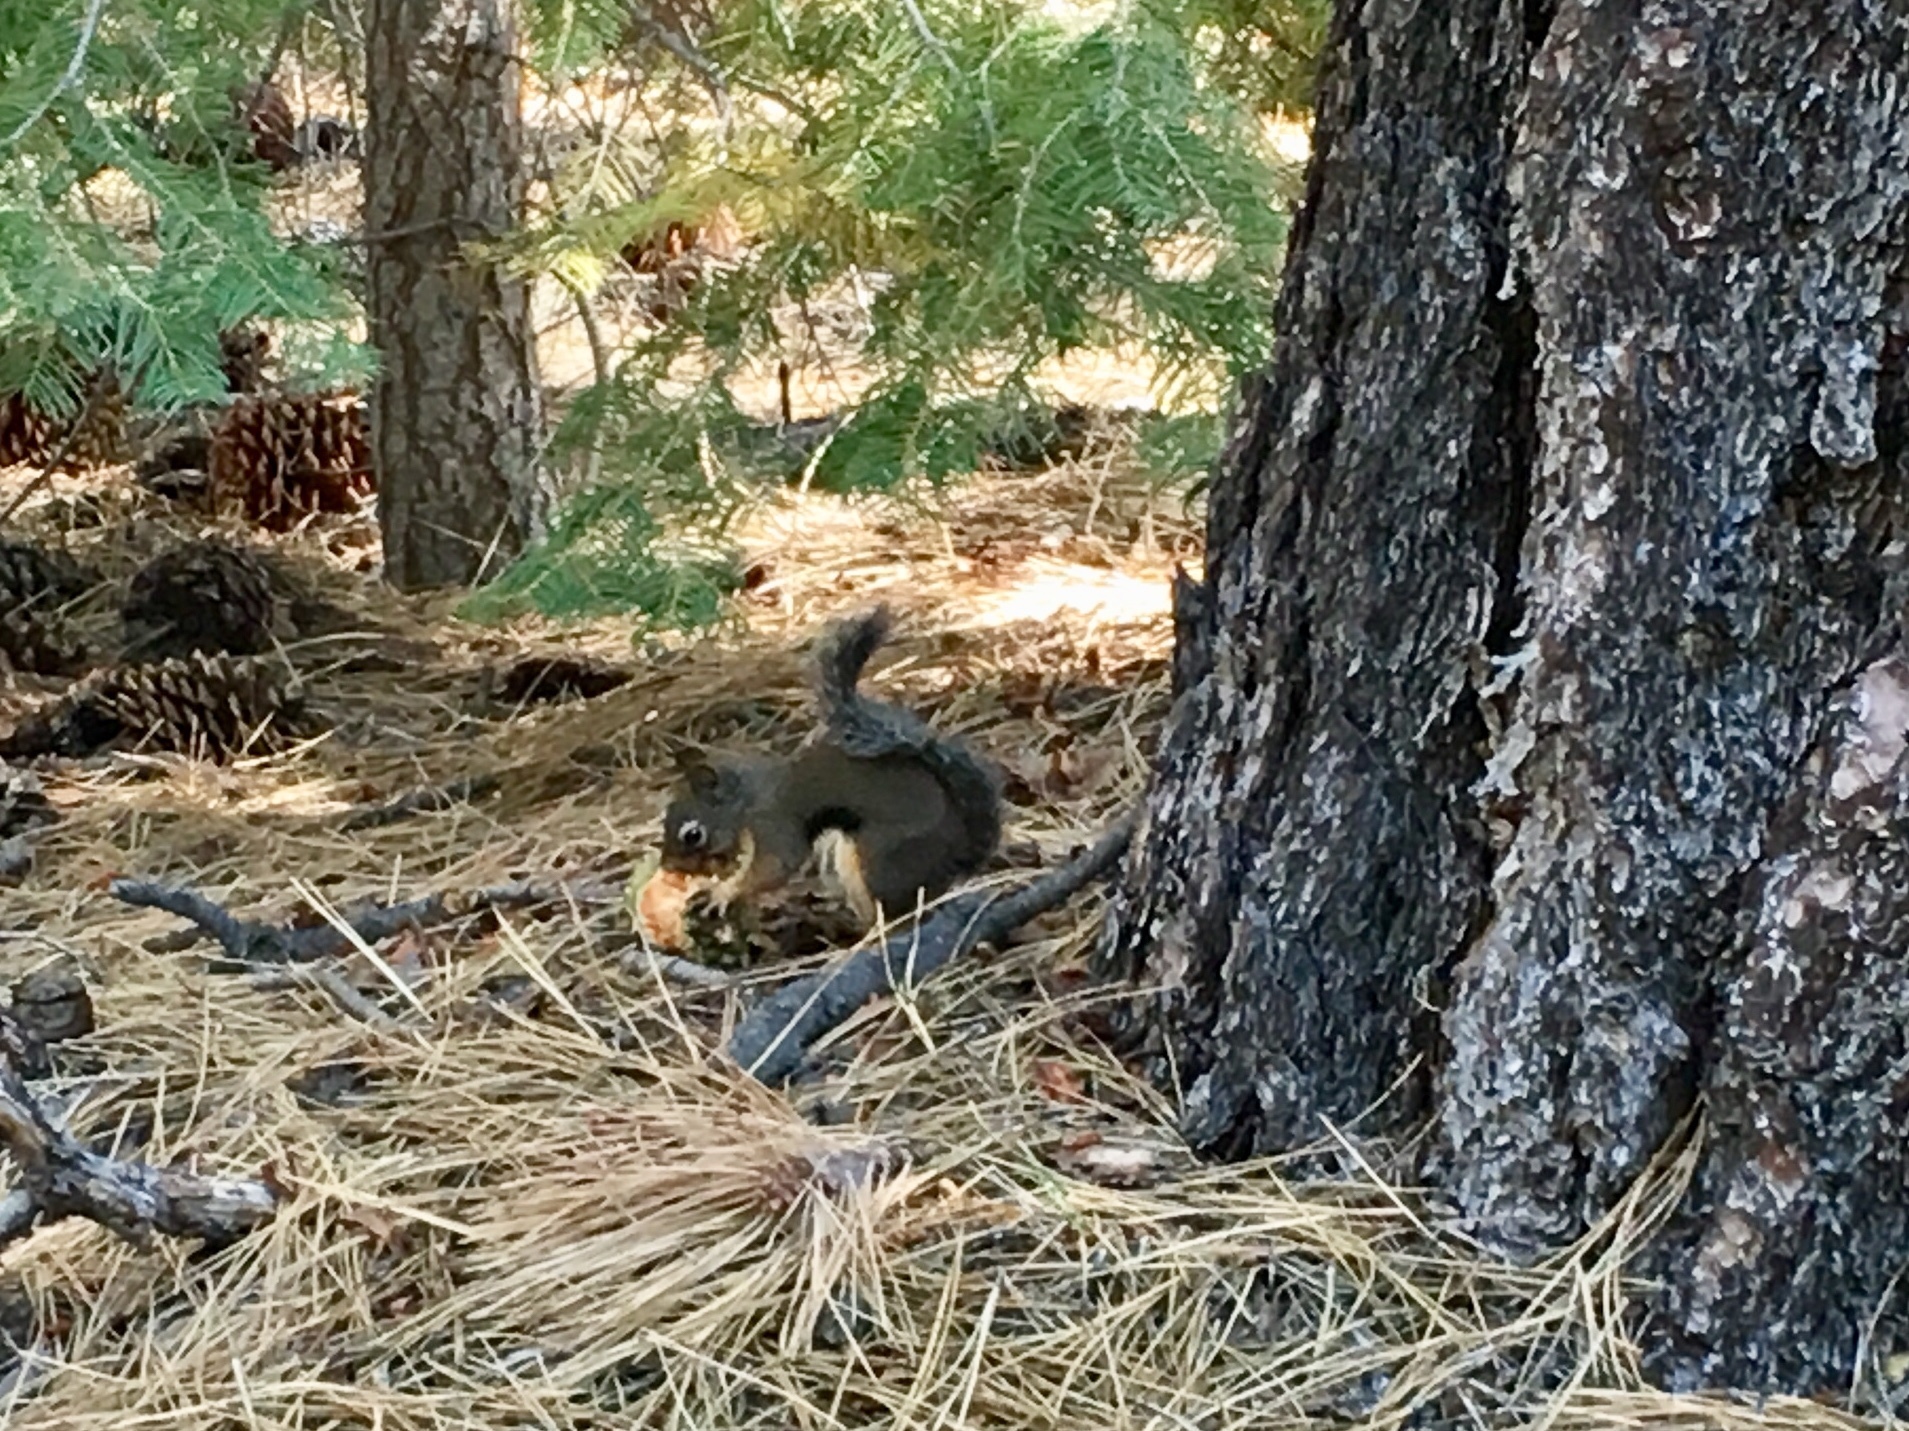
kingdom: Animalia
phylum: Chordata
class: Mammalia
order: Rodentia
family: Sciuridae
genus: Tamiasciurus
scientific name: Tamiasciurus douglasii
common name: Douglas's squirrel
